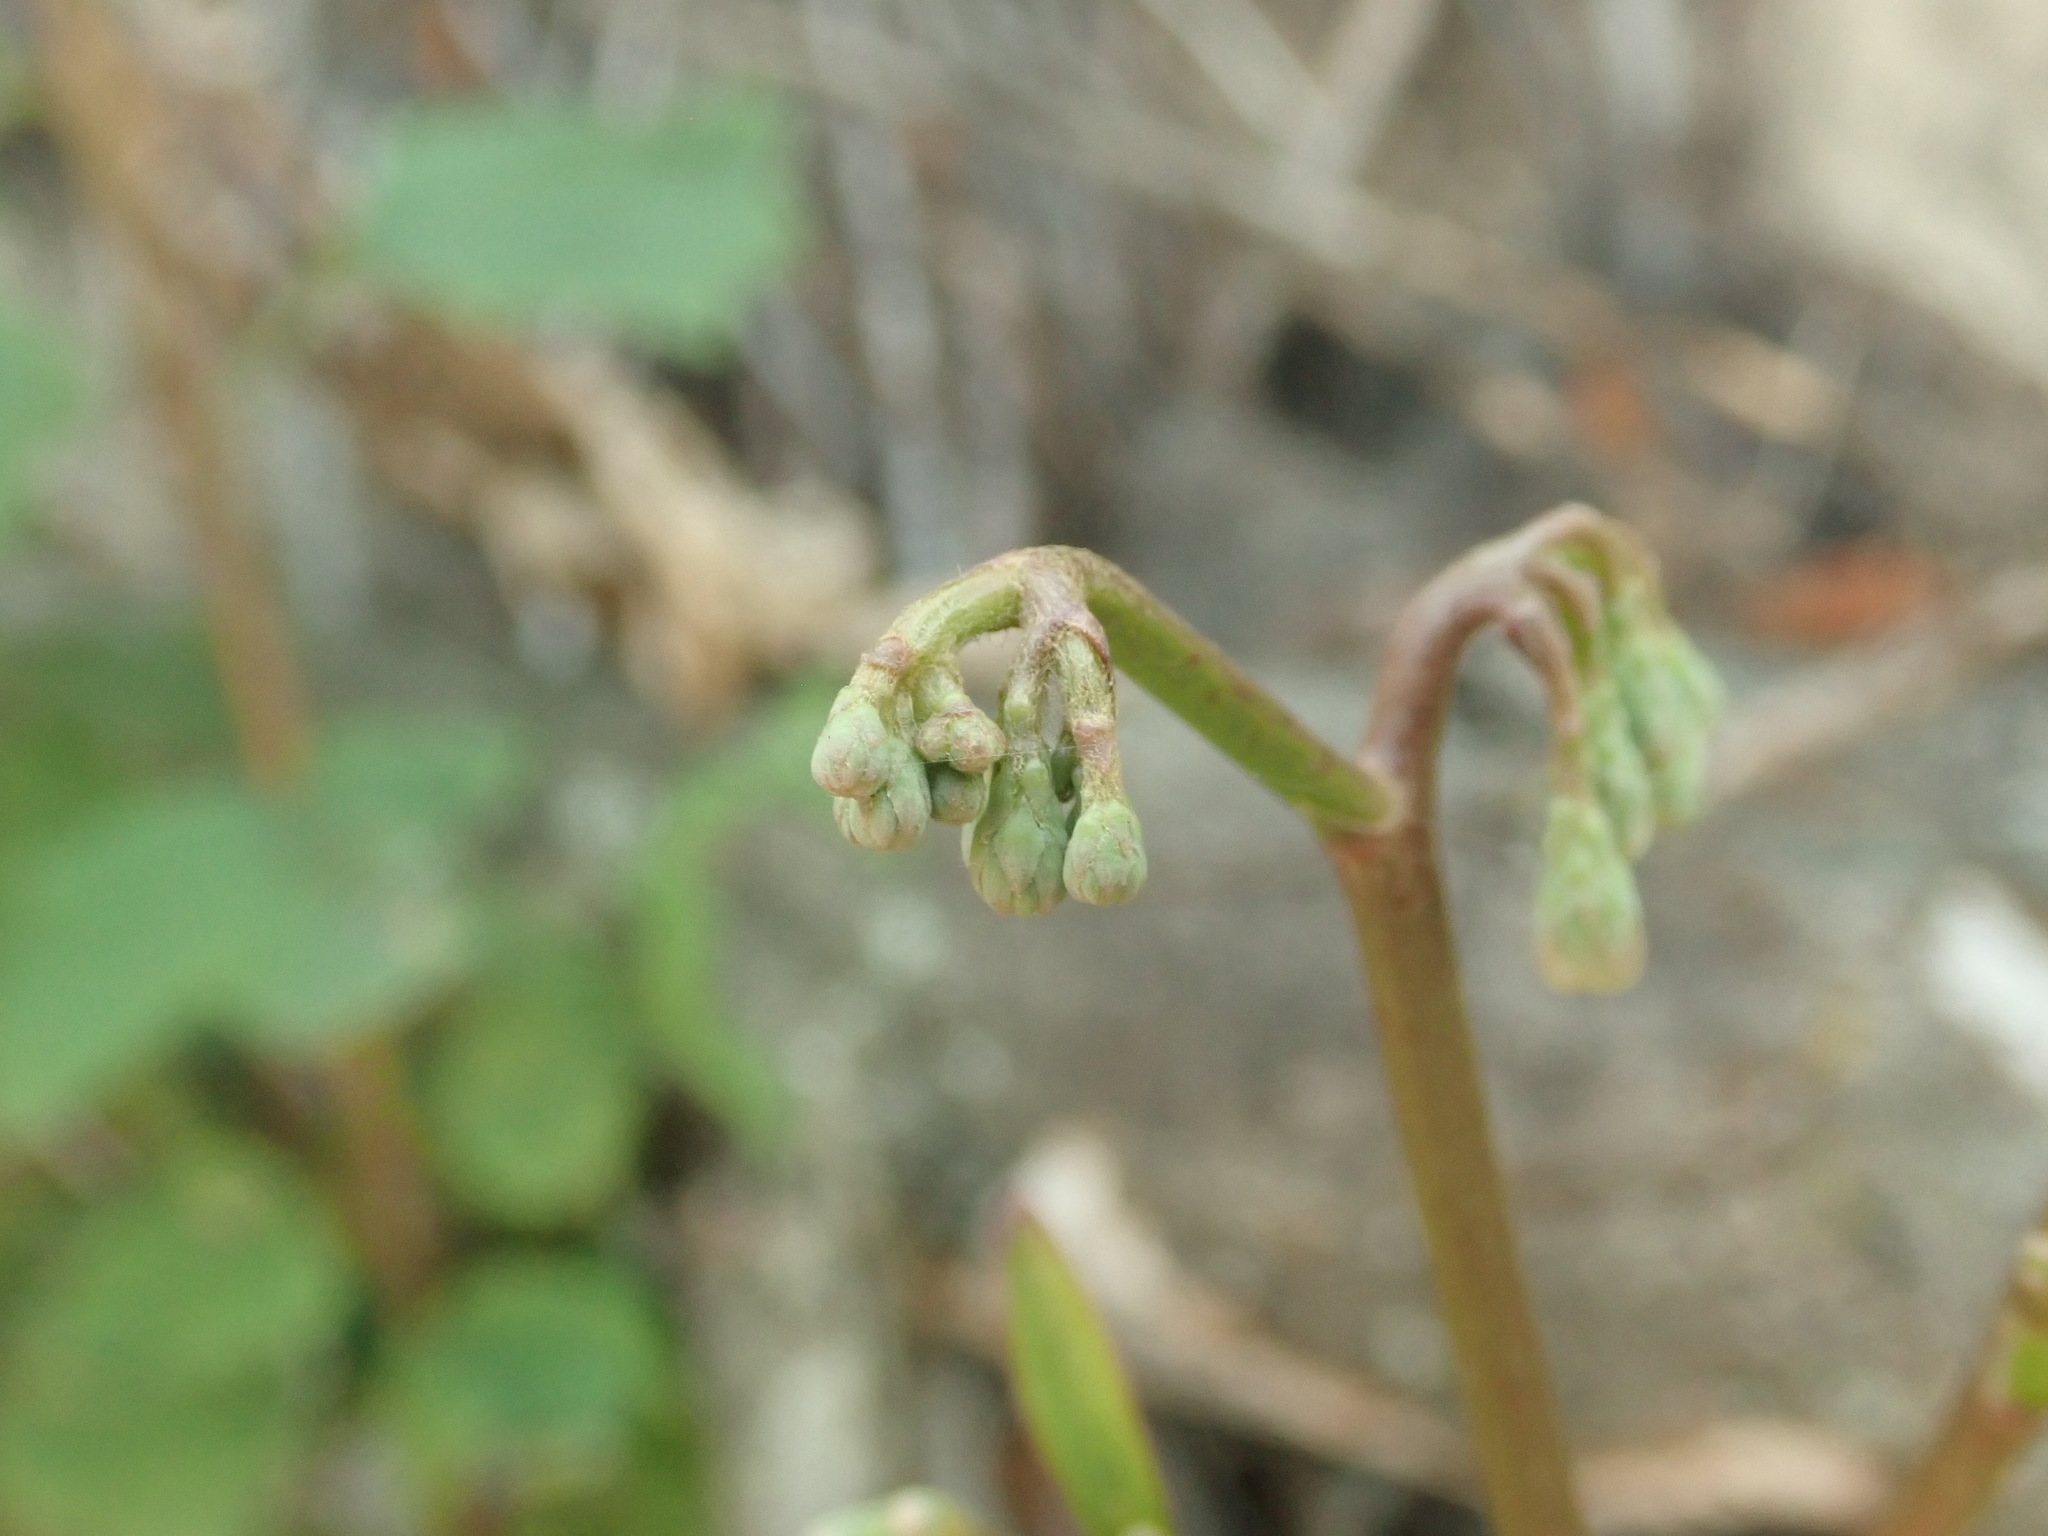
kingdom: Plantae
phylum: Tracheophyta
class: Magnoliopsida
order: Asterales
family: Asteraceae
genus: Nabalus
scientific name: Nabalus albus
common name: White rattlesnakeroot
